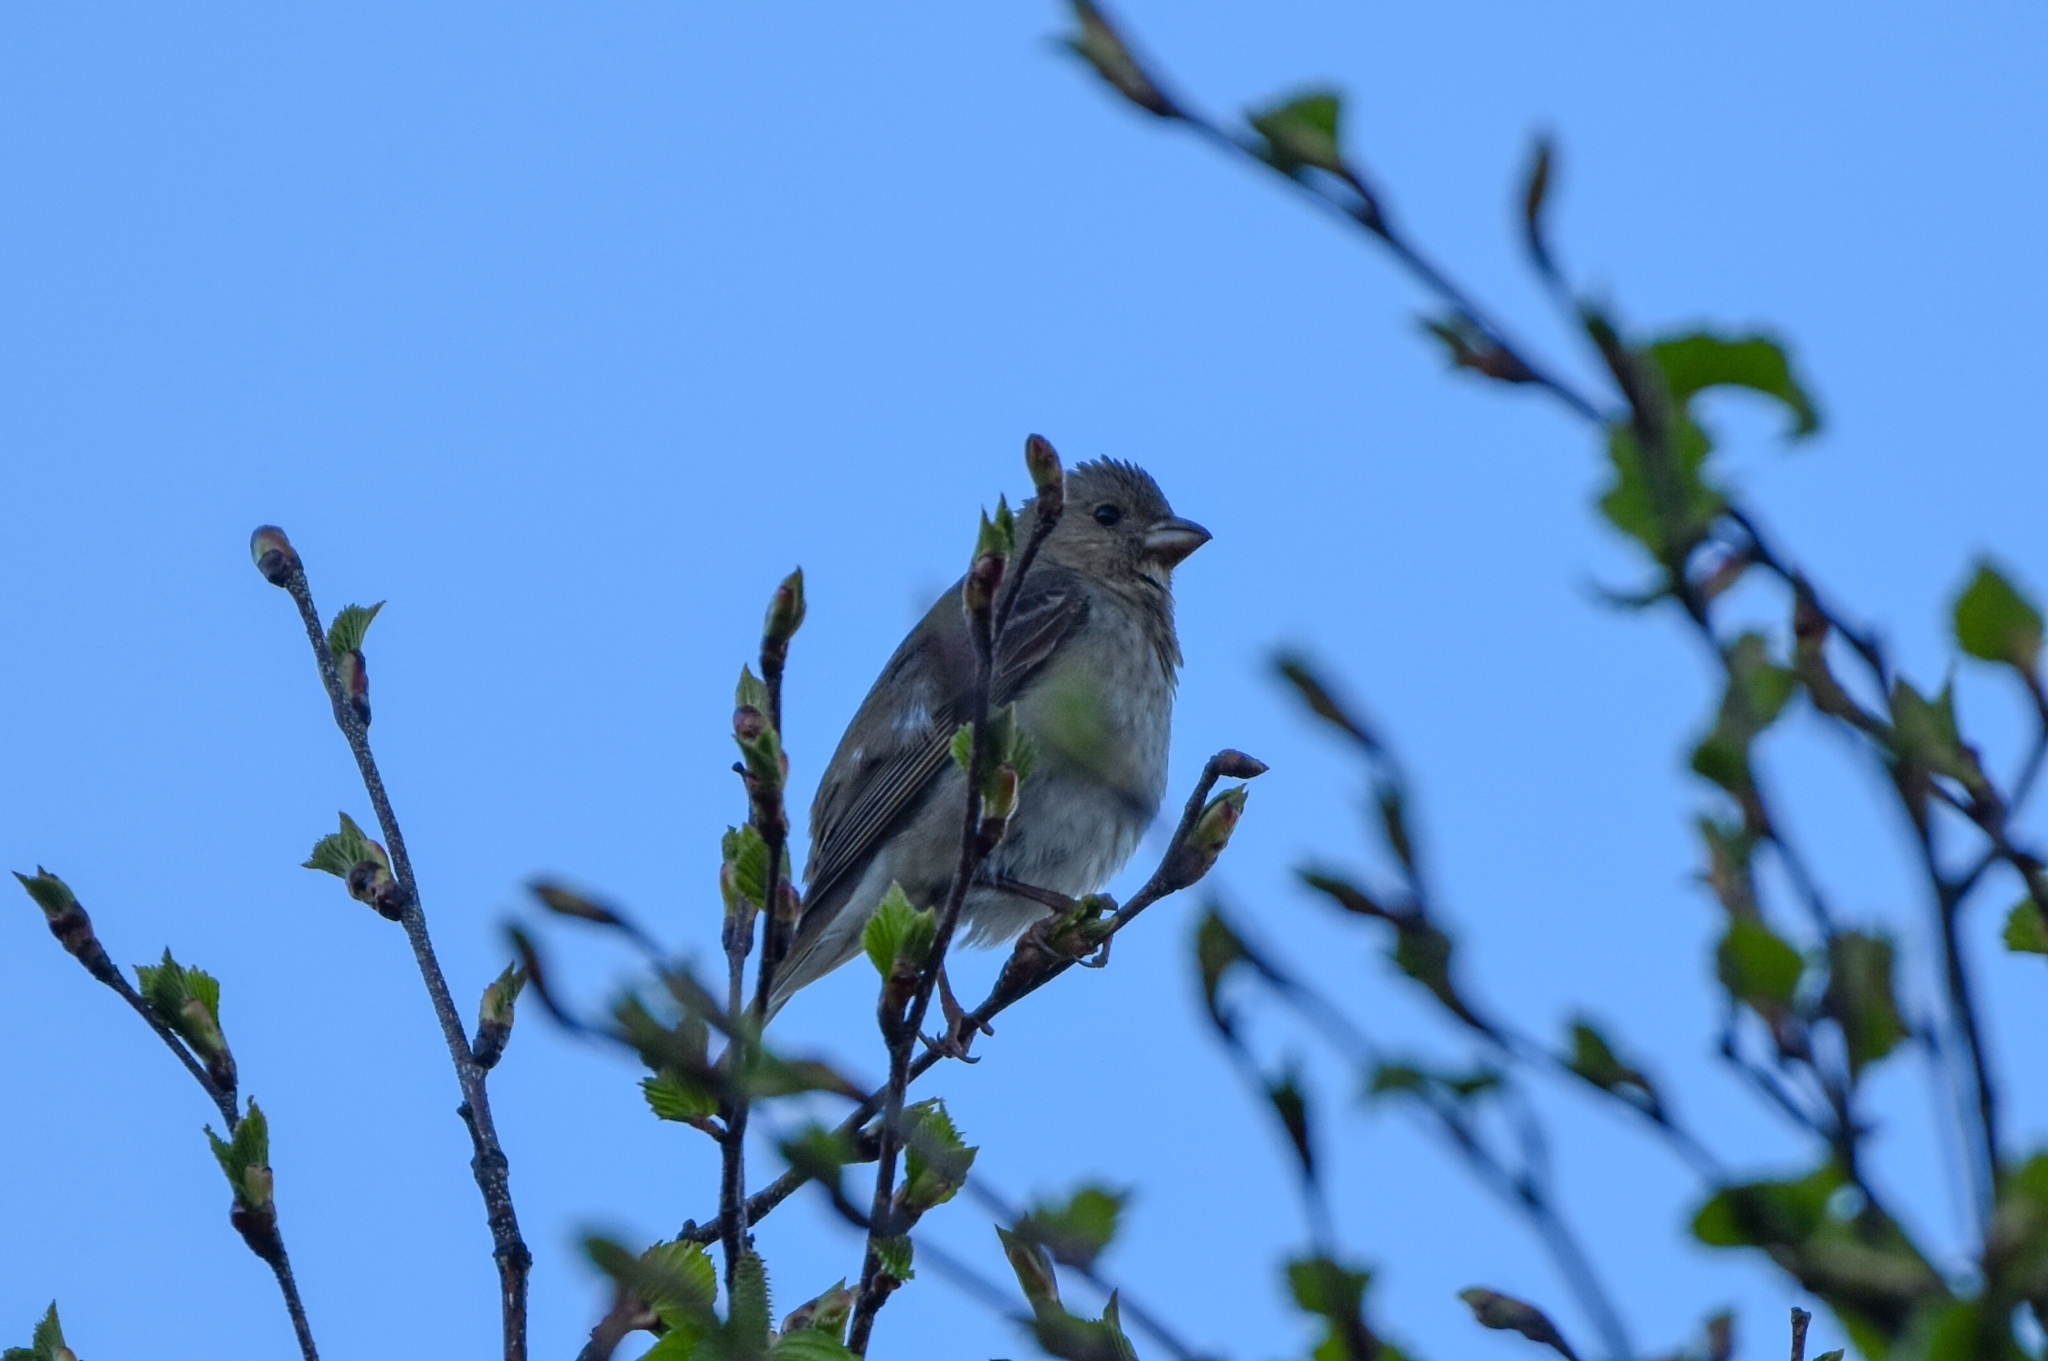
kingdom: Animalia
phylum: Chordata
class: Aves
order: Passeriformes
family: Fringillidae
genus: Carpodacus
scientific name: Carpodacus erythrinus
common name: Common rosefinch
